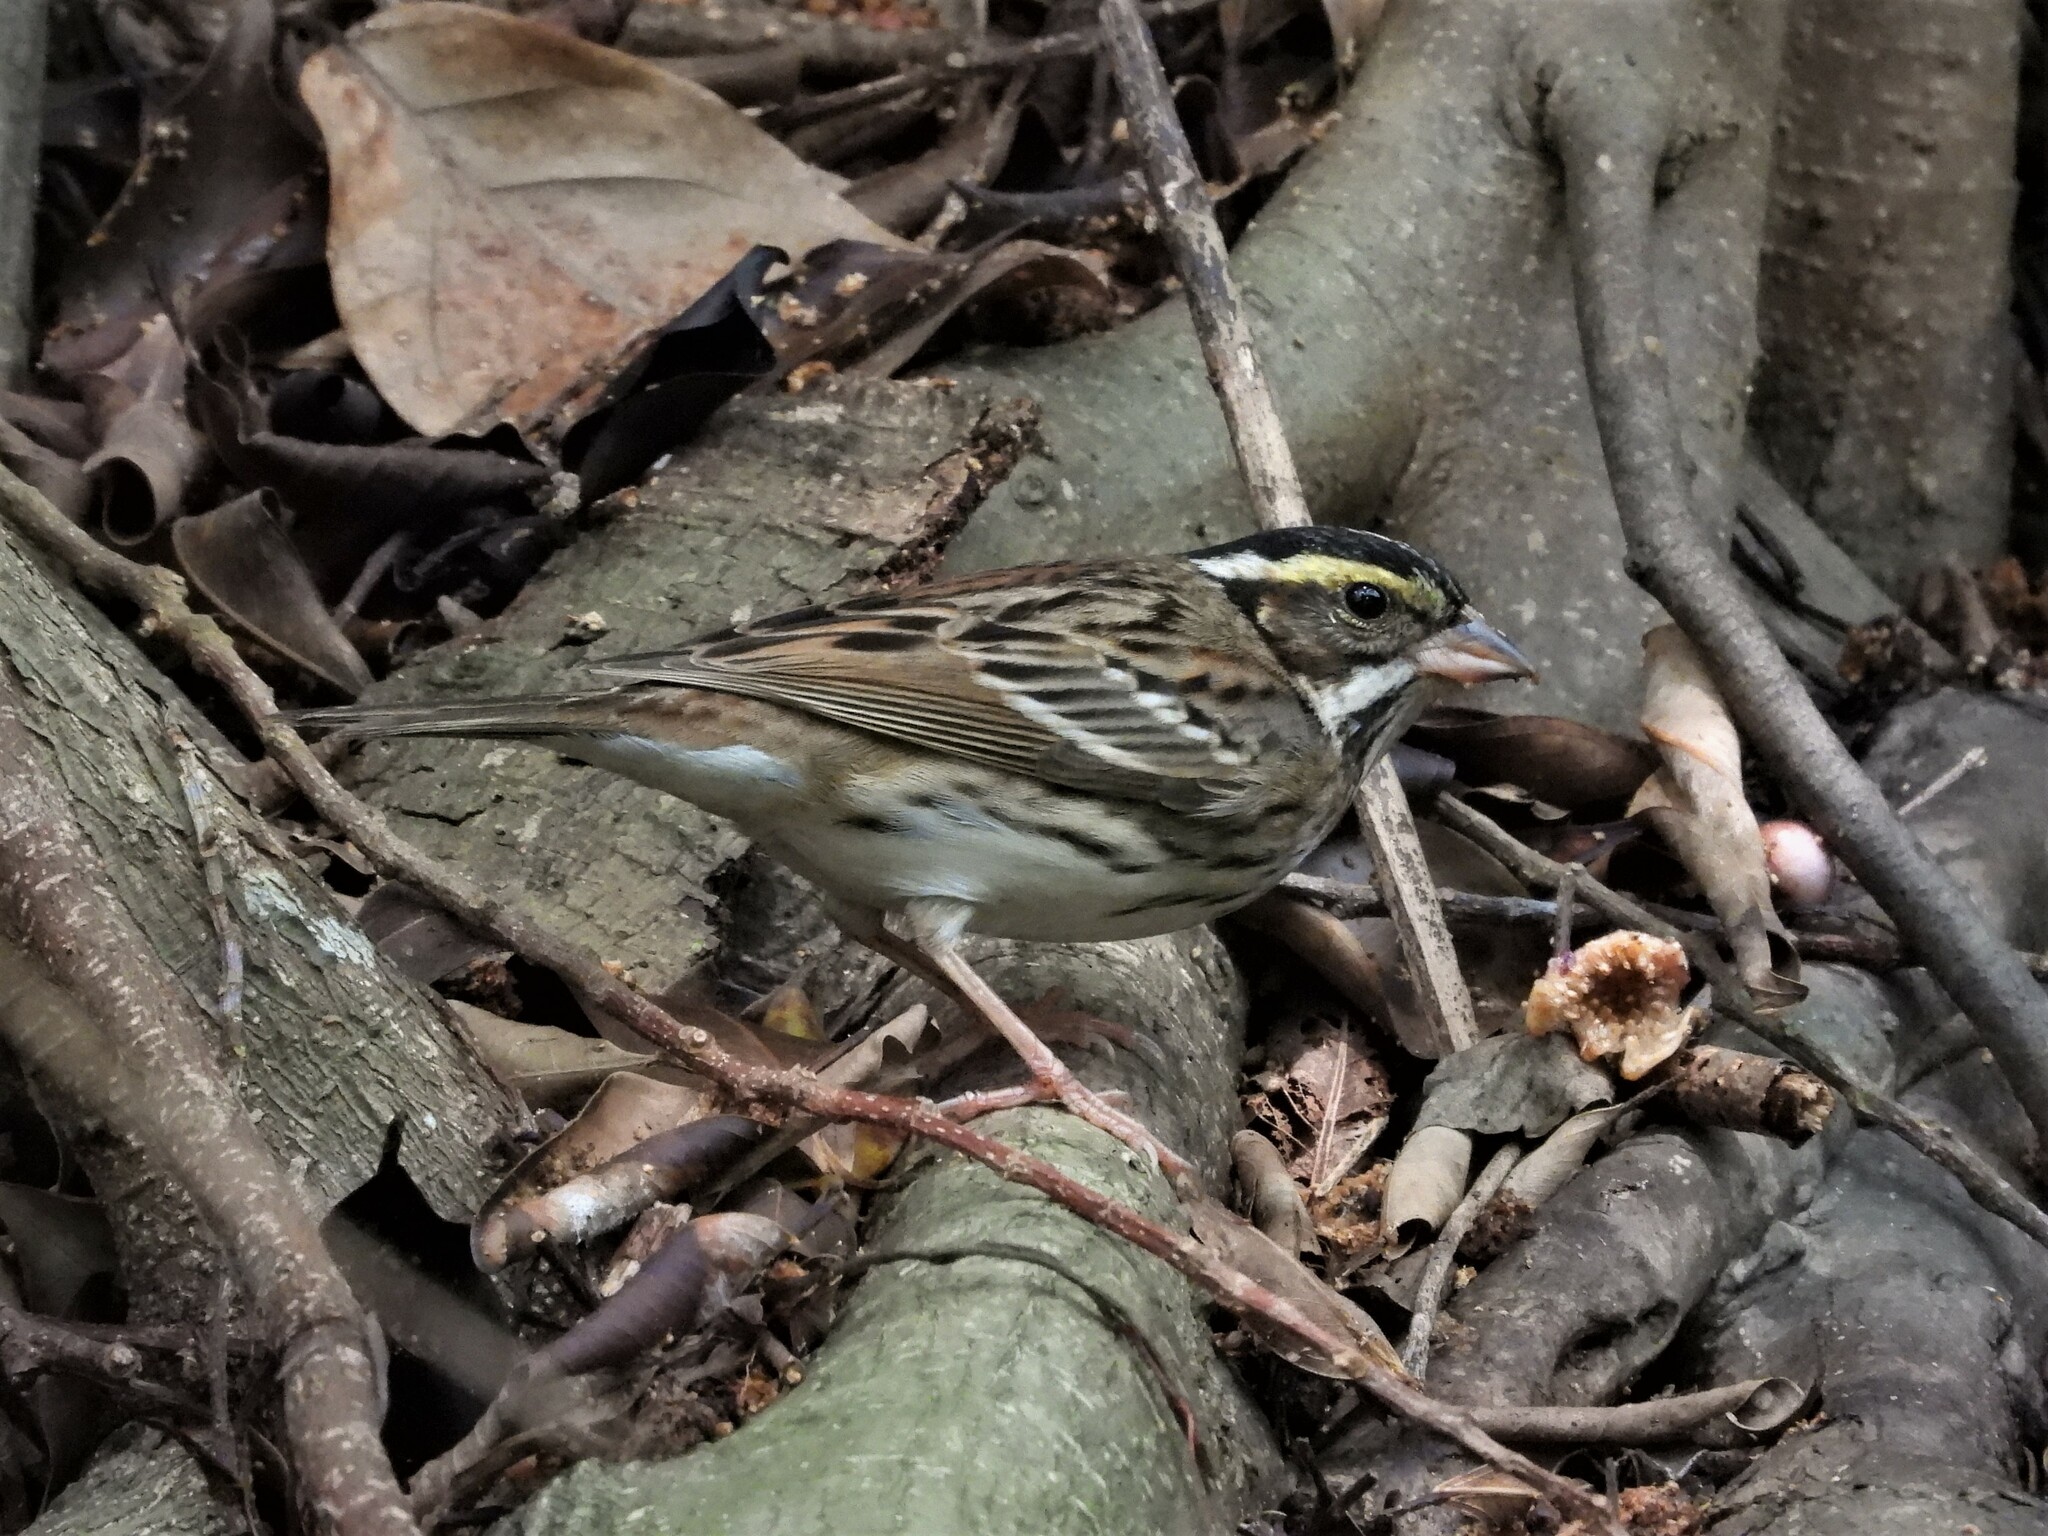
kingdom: Animalia
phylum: Chordata
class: Aves
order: Passeriformes
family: Emberizidae
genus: Emberiza
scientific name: Emberiza chrysophrys
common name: Yellow-browed bunting
